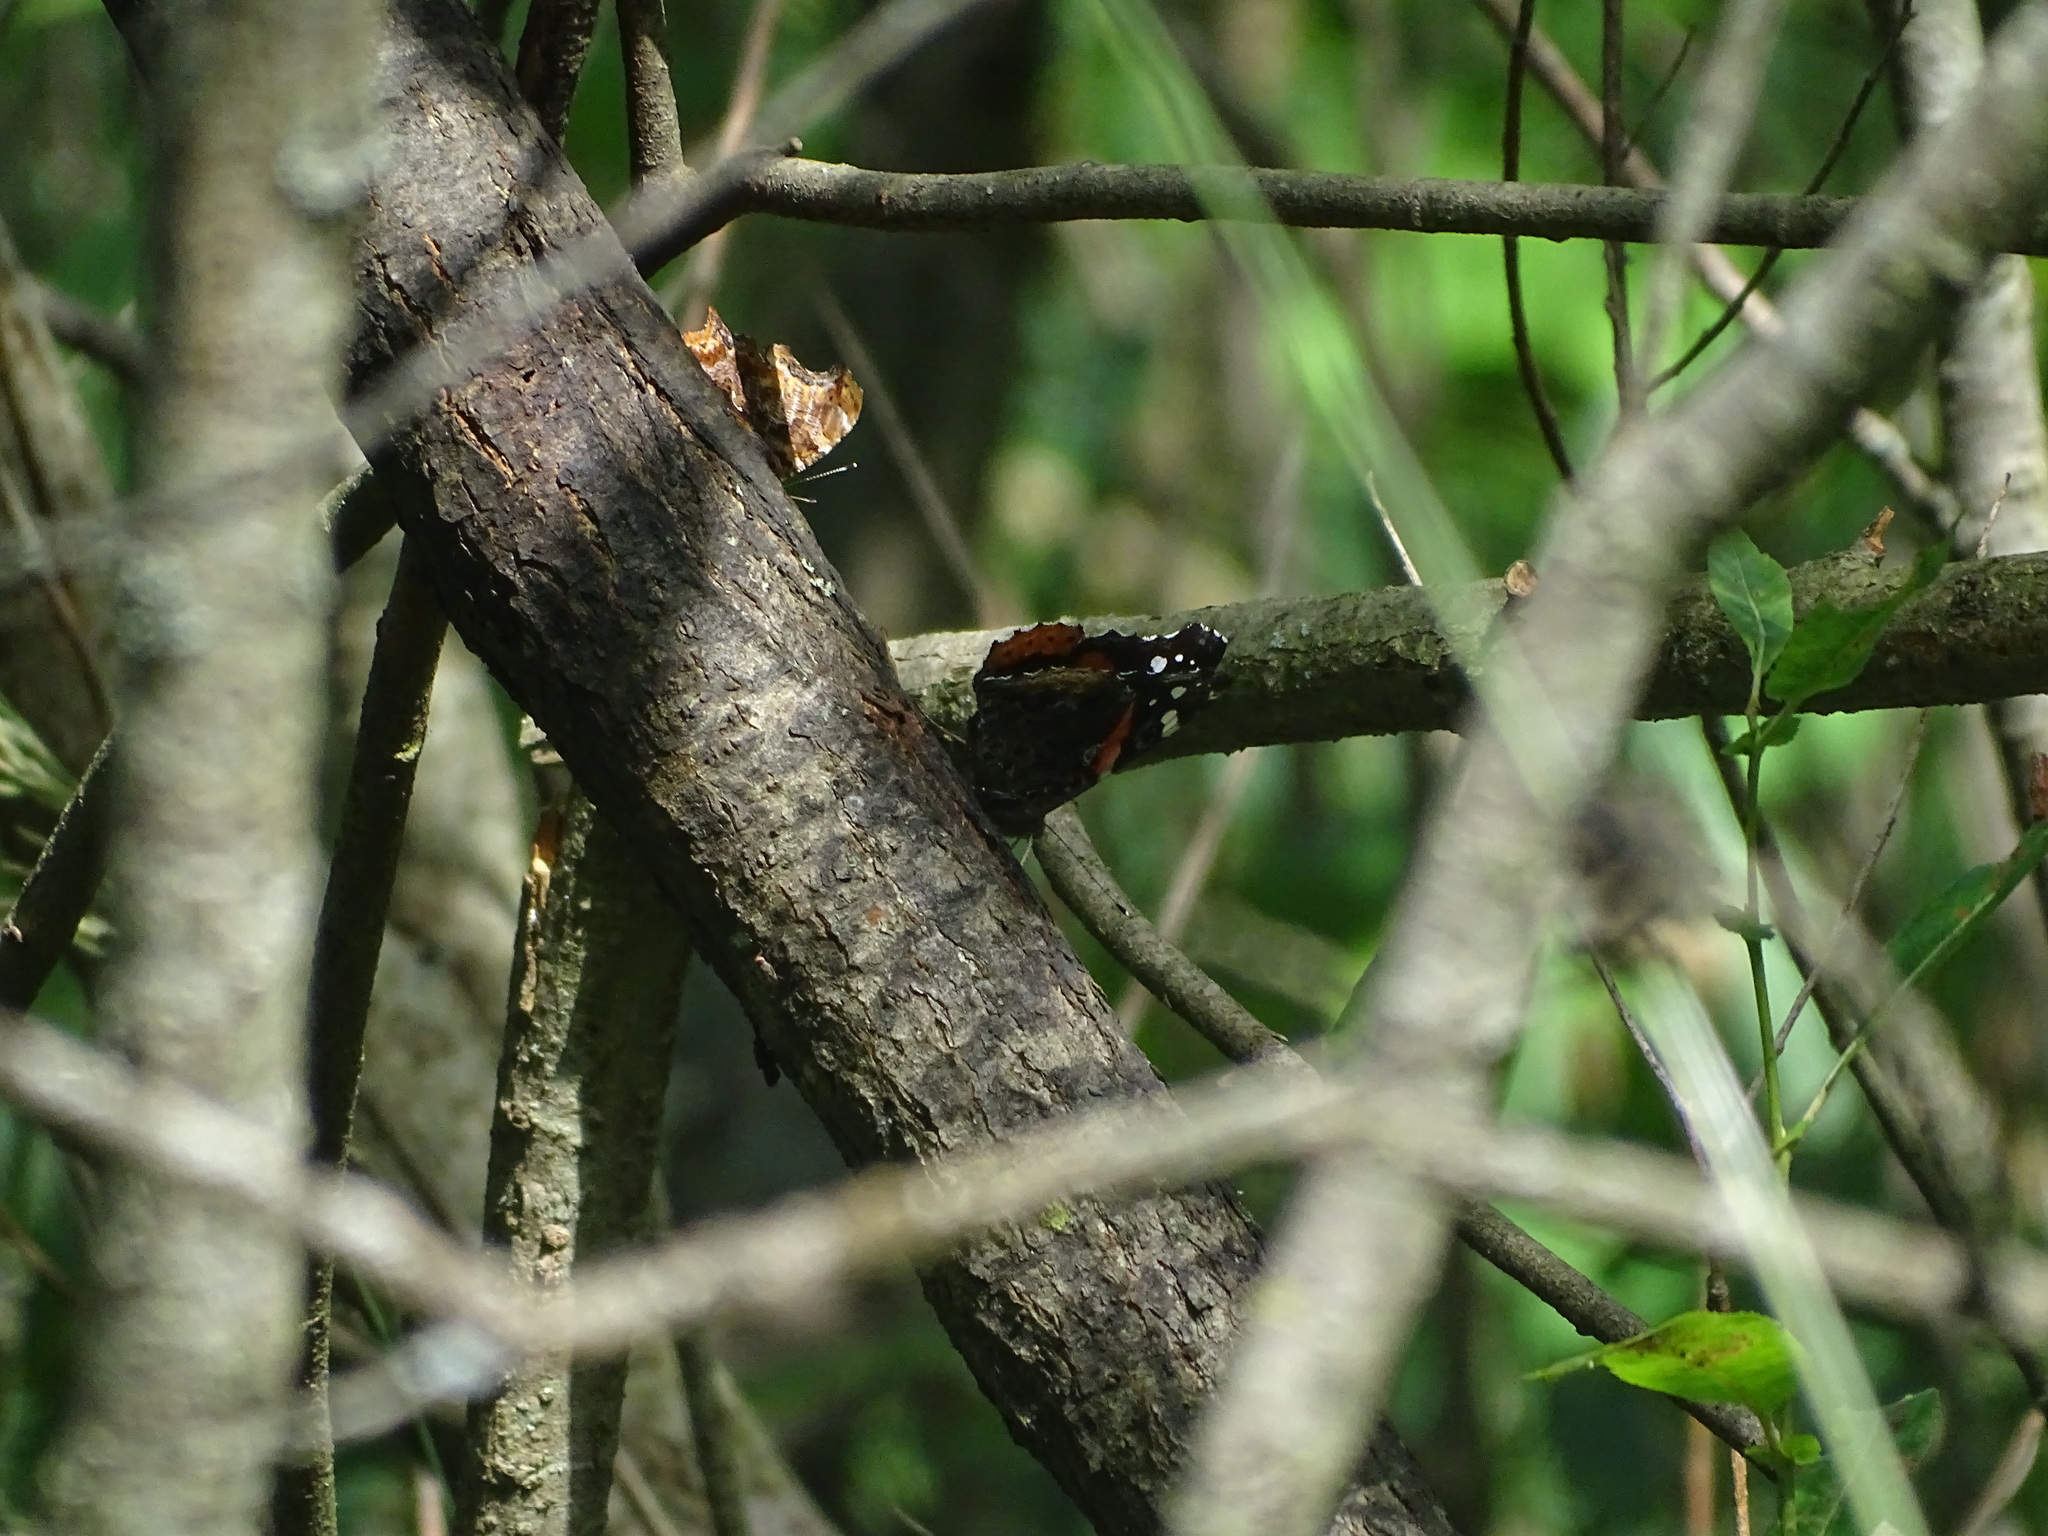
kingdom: Animalia
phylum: Arthropoda
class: Insecta
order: Lepidoptera
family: Nymphalidae
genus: Vanessa
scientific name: Vanessa atalanta
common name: Red admiral
